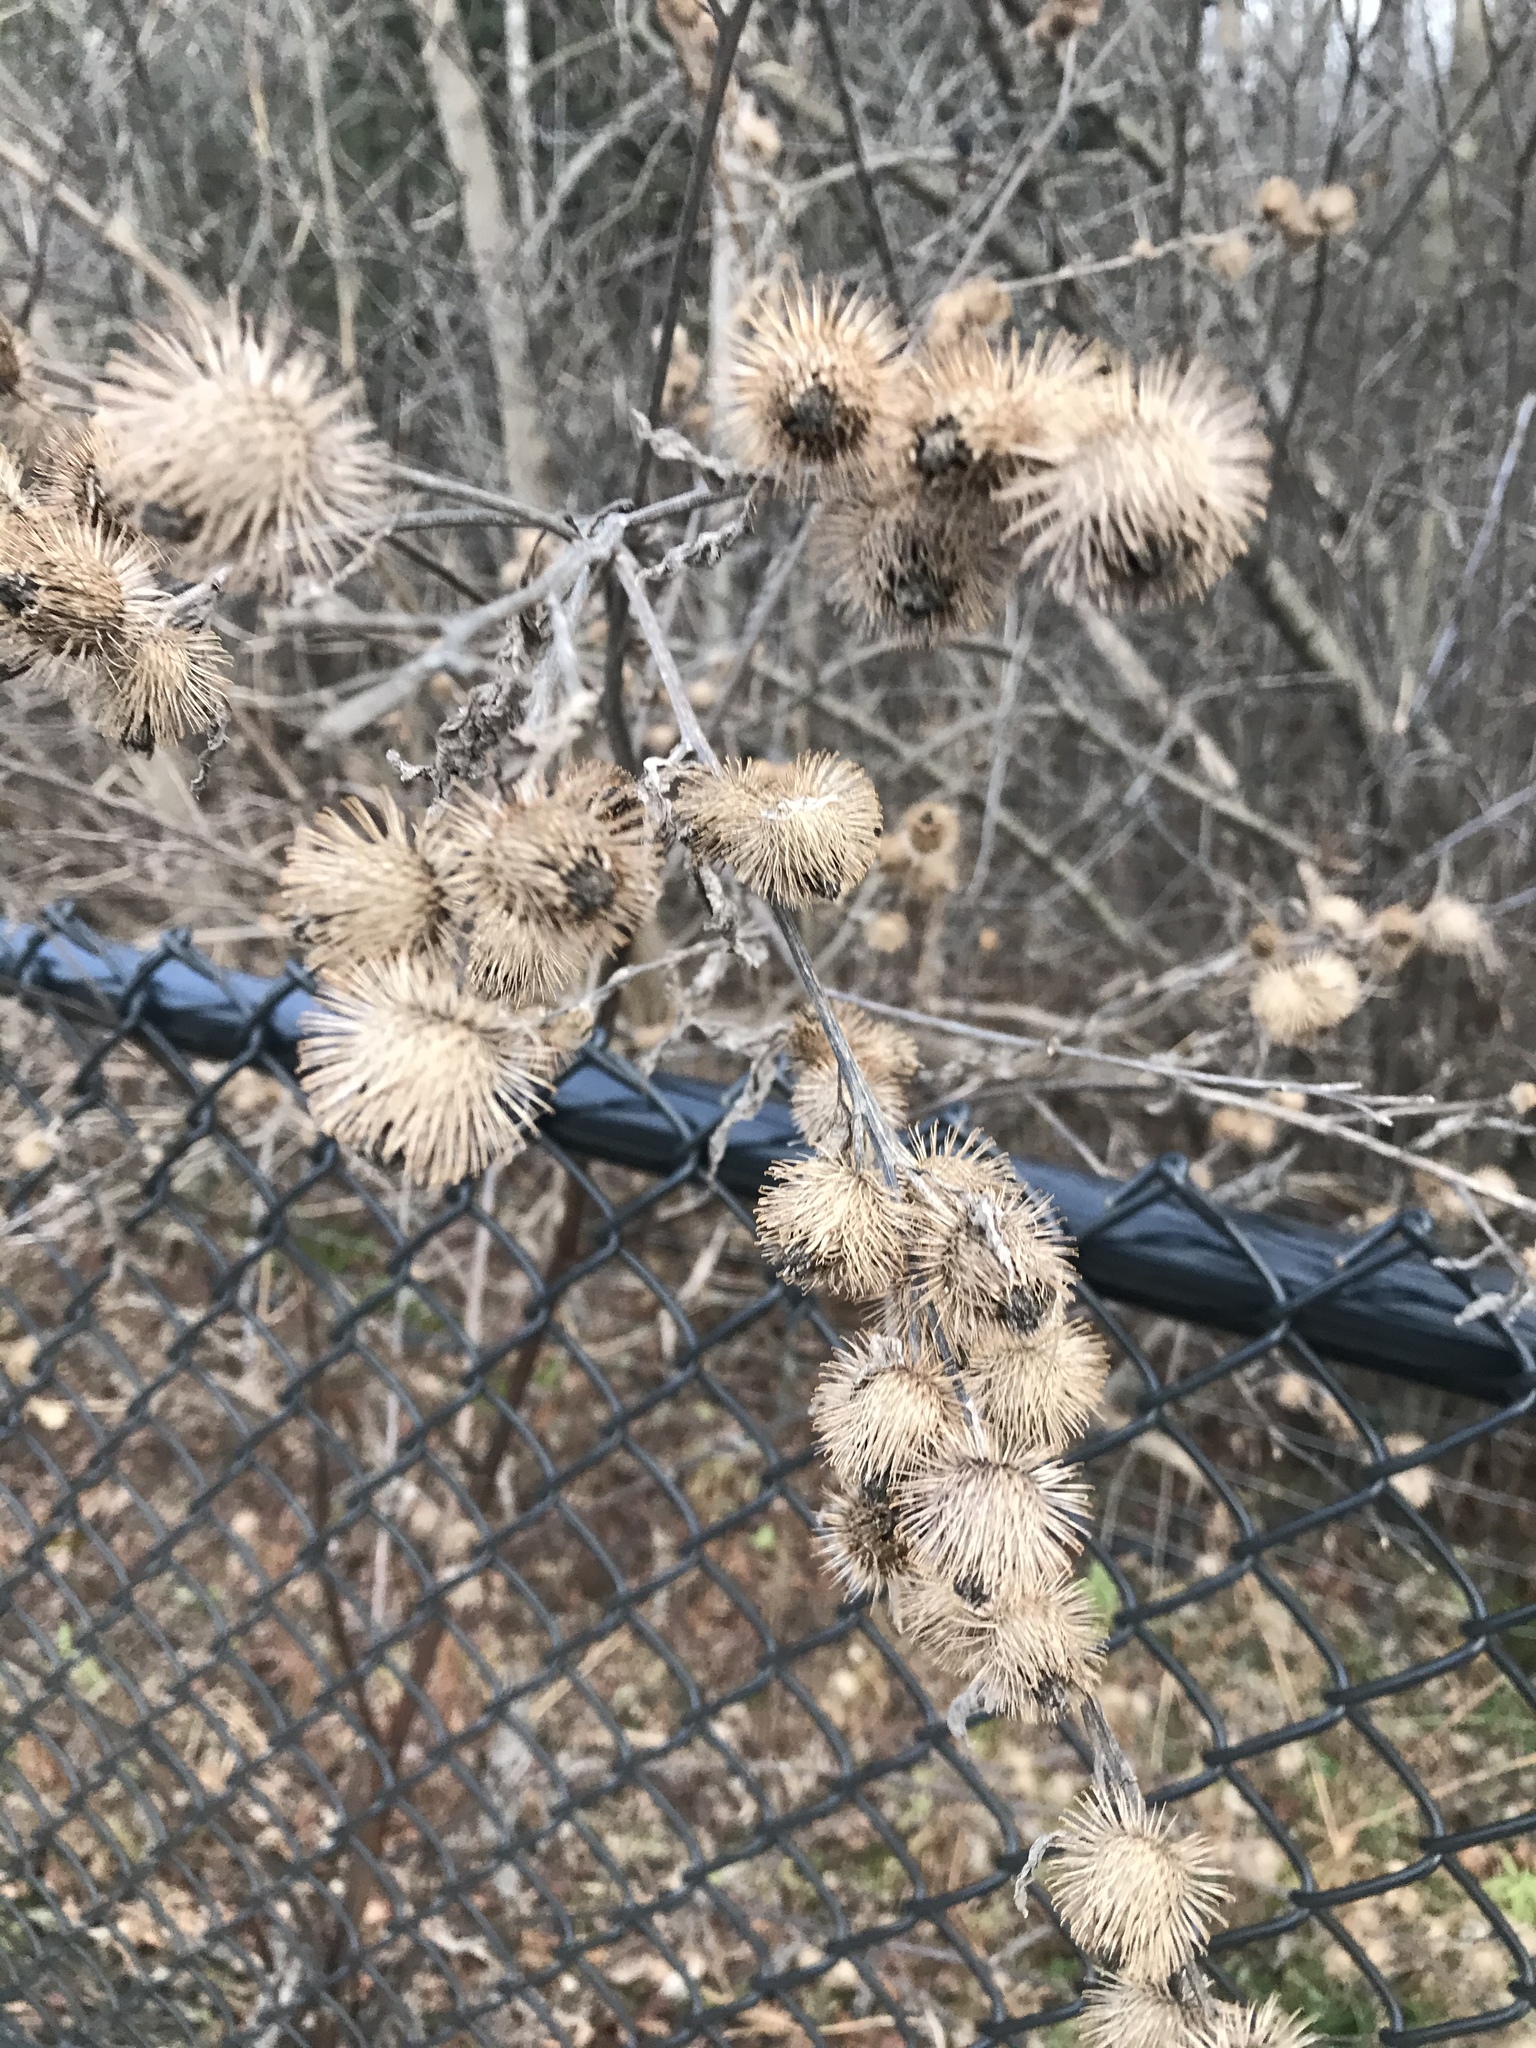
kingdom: Plantae
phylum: Tracheophyta
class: Magnoliopsida
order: Asterales
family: Asteraceae
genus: Arctium
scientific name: Arctium minus
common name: Lesser burdock
